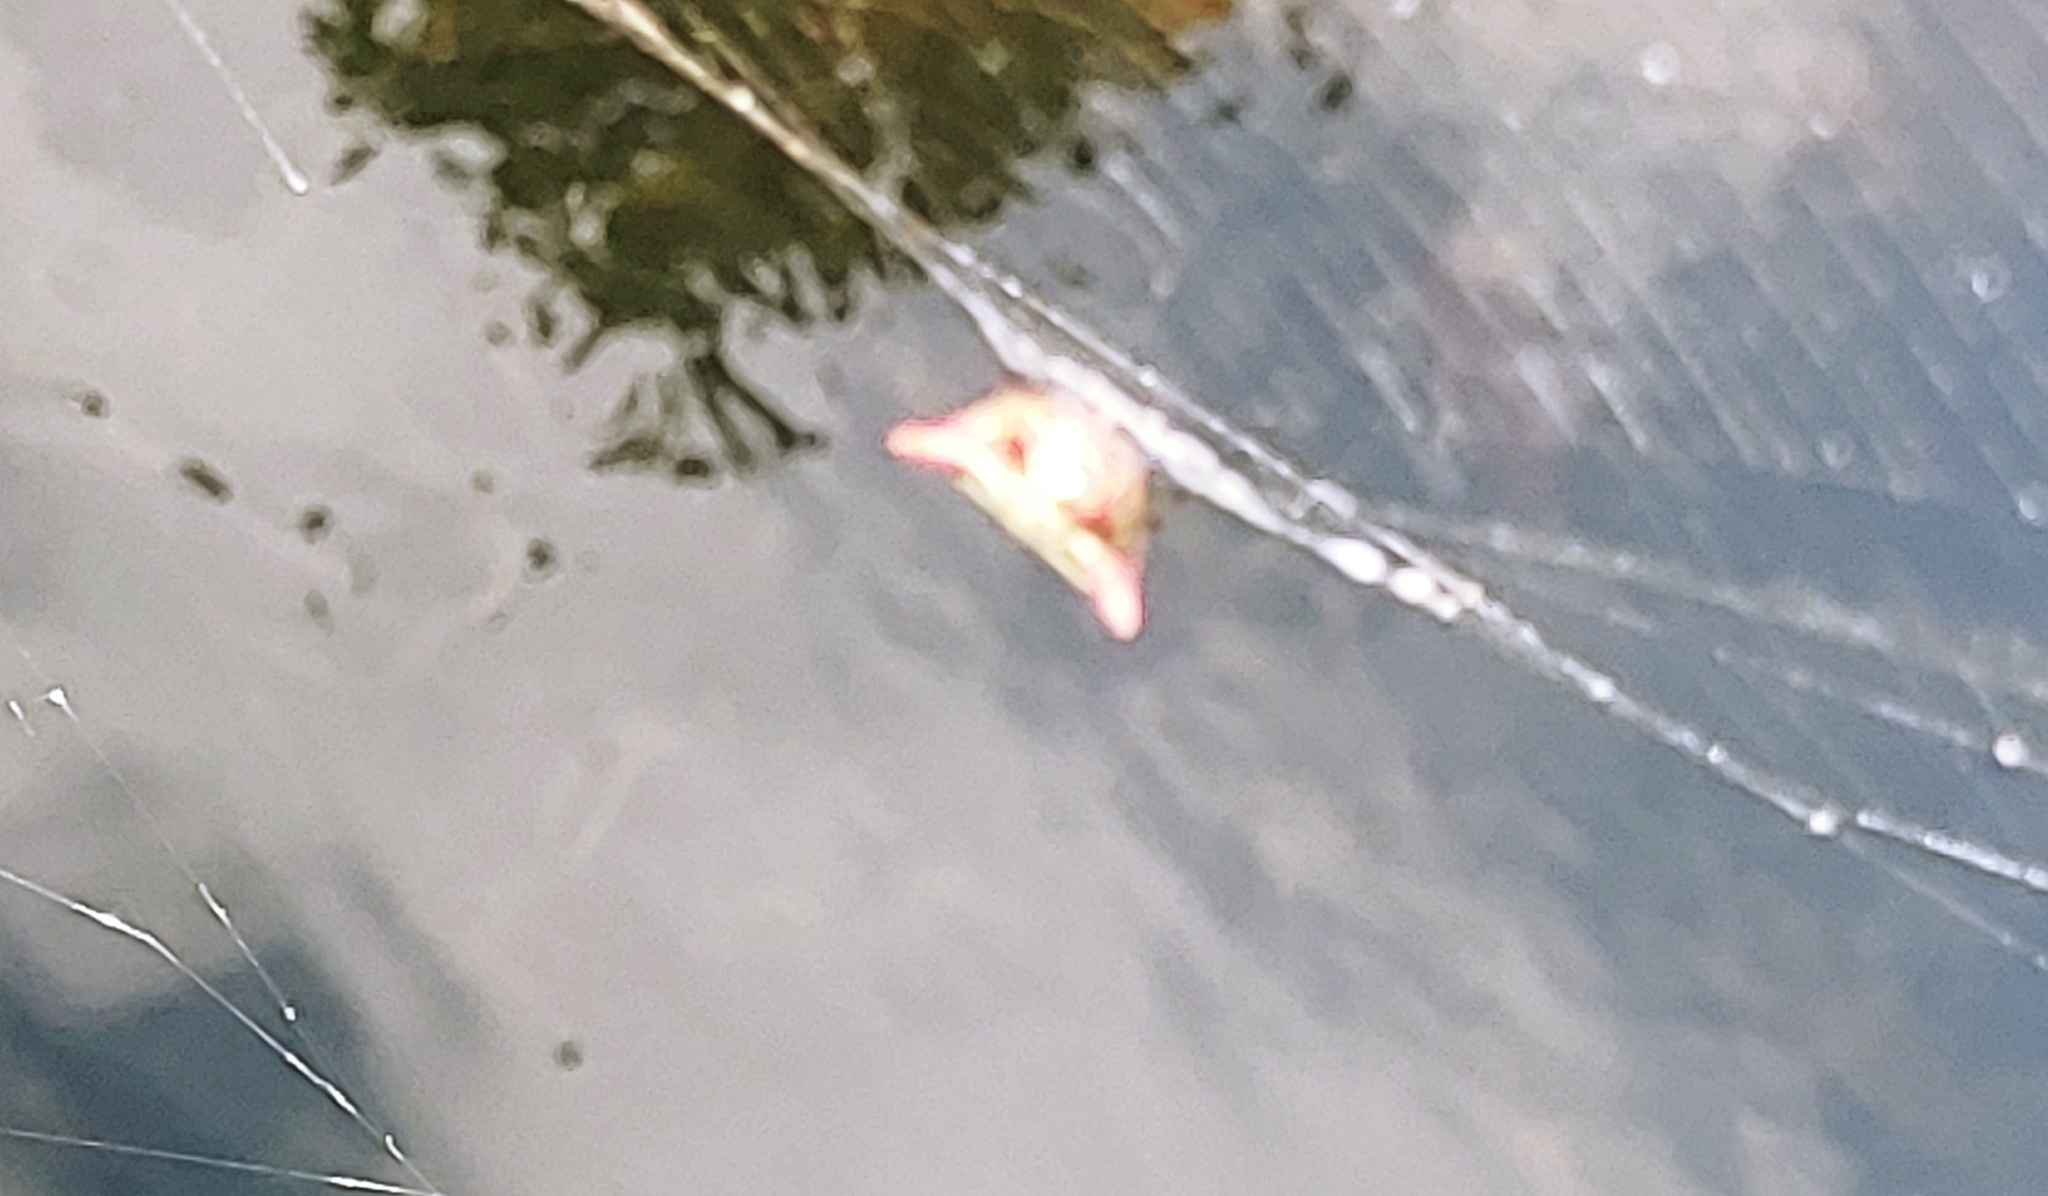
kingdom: Animalia
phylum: Arthropoda
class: Arachnida
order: Araneae
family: Araneidae
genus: Gasteracantha
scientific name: Gasteracantha cancriformis
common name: Orb weavers
